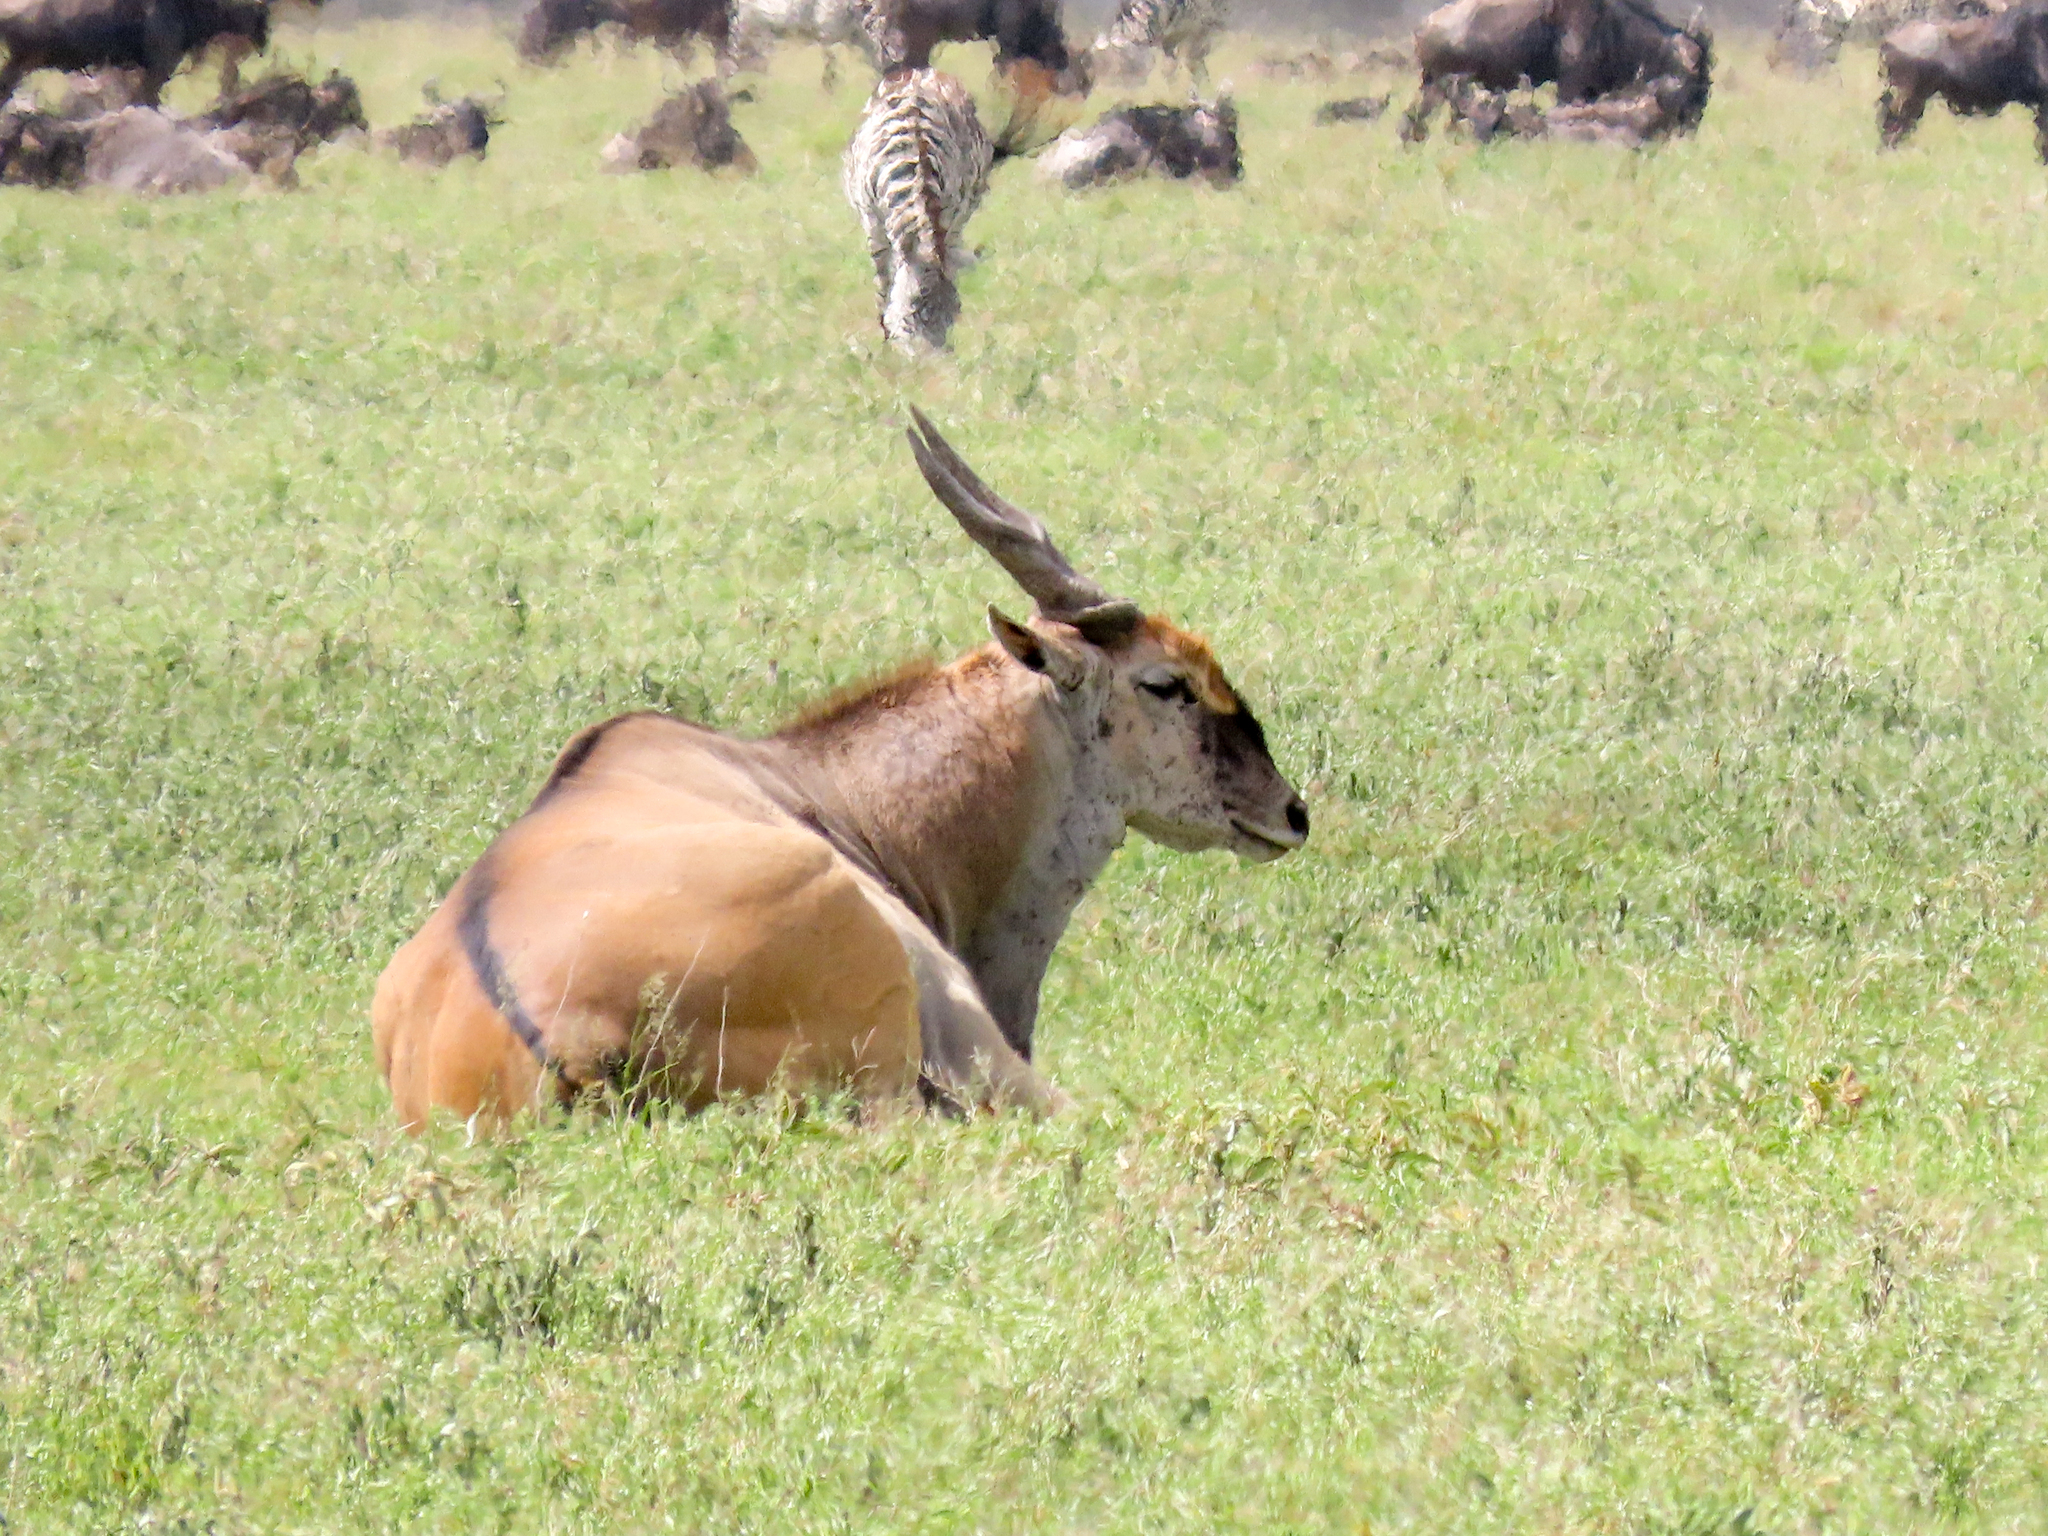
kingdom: Animalia
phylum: Chordata
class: Mammalia
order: Artiodactyla
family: Bovidae
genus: Taurotragus
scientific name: Taurotragus oryx
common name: Common eland
